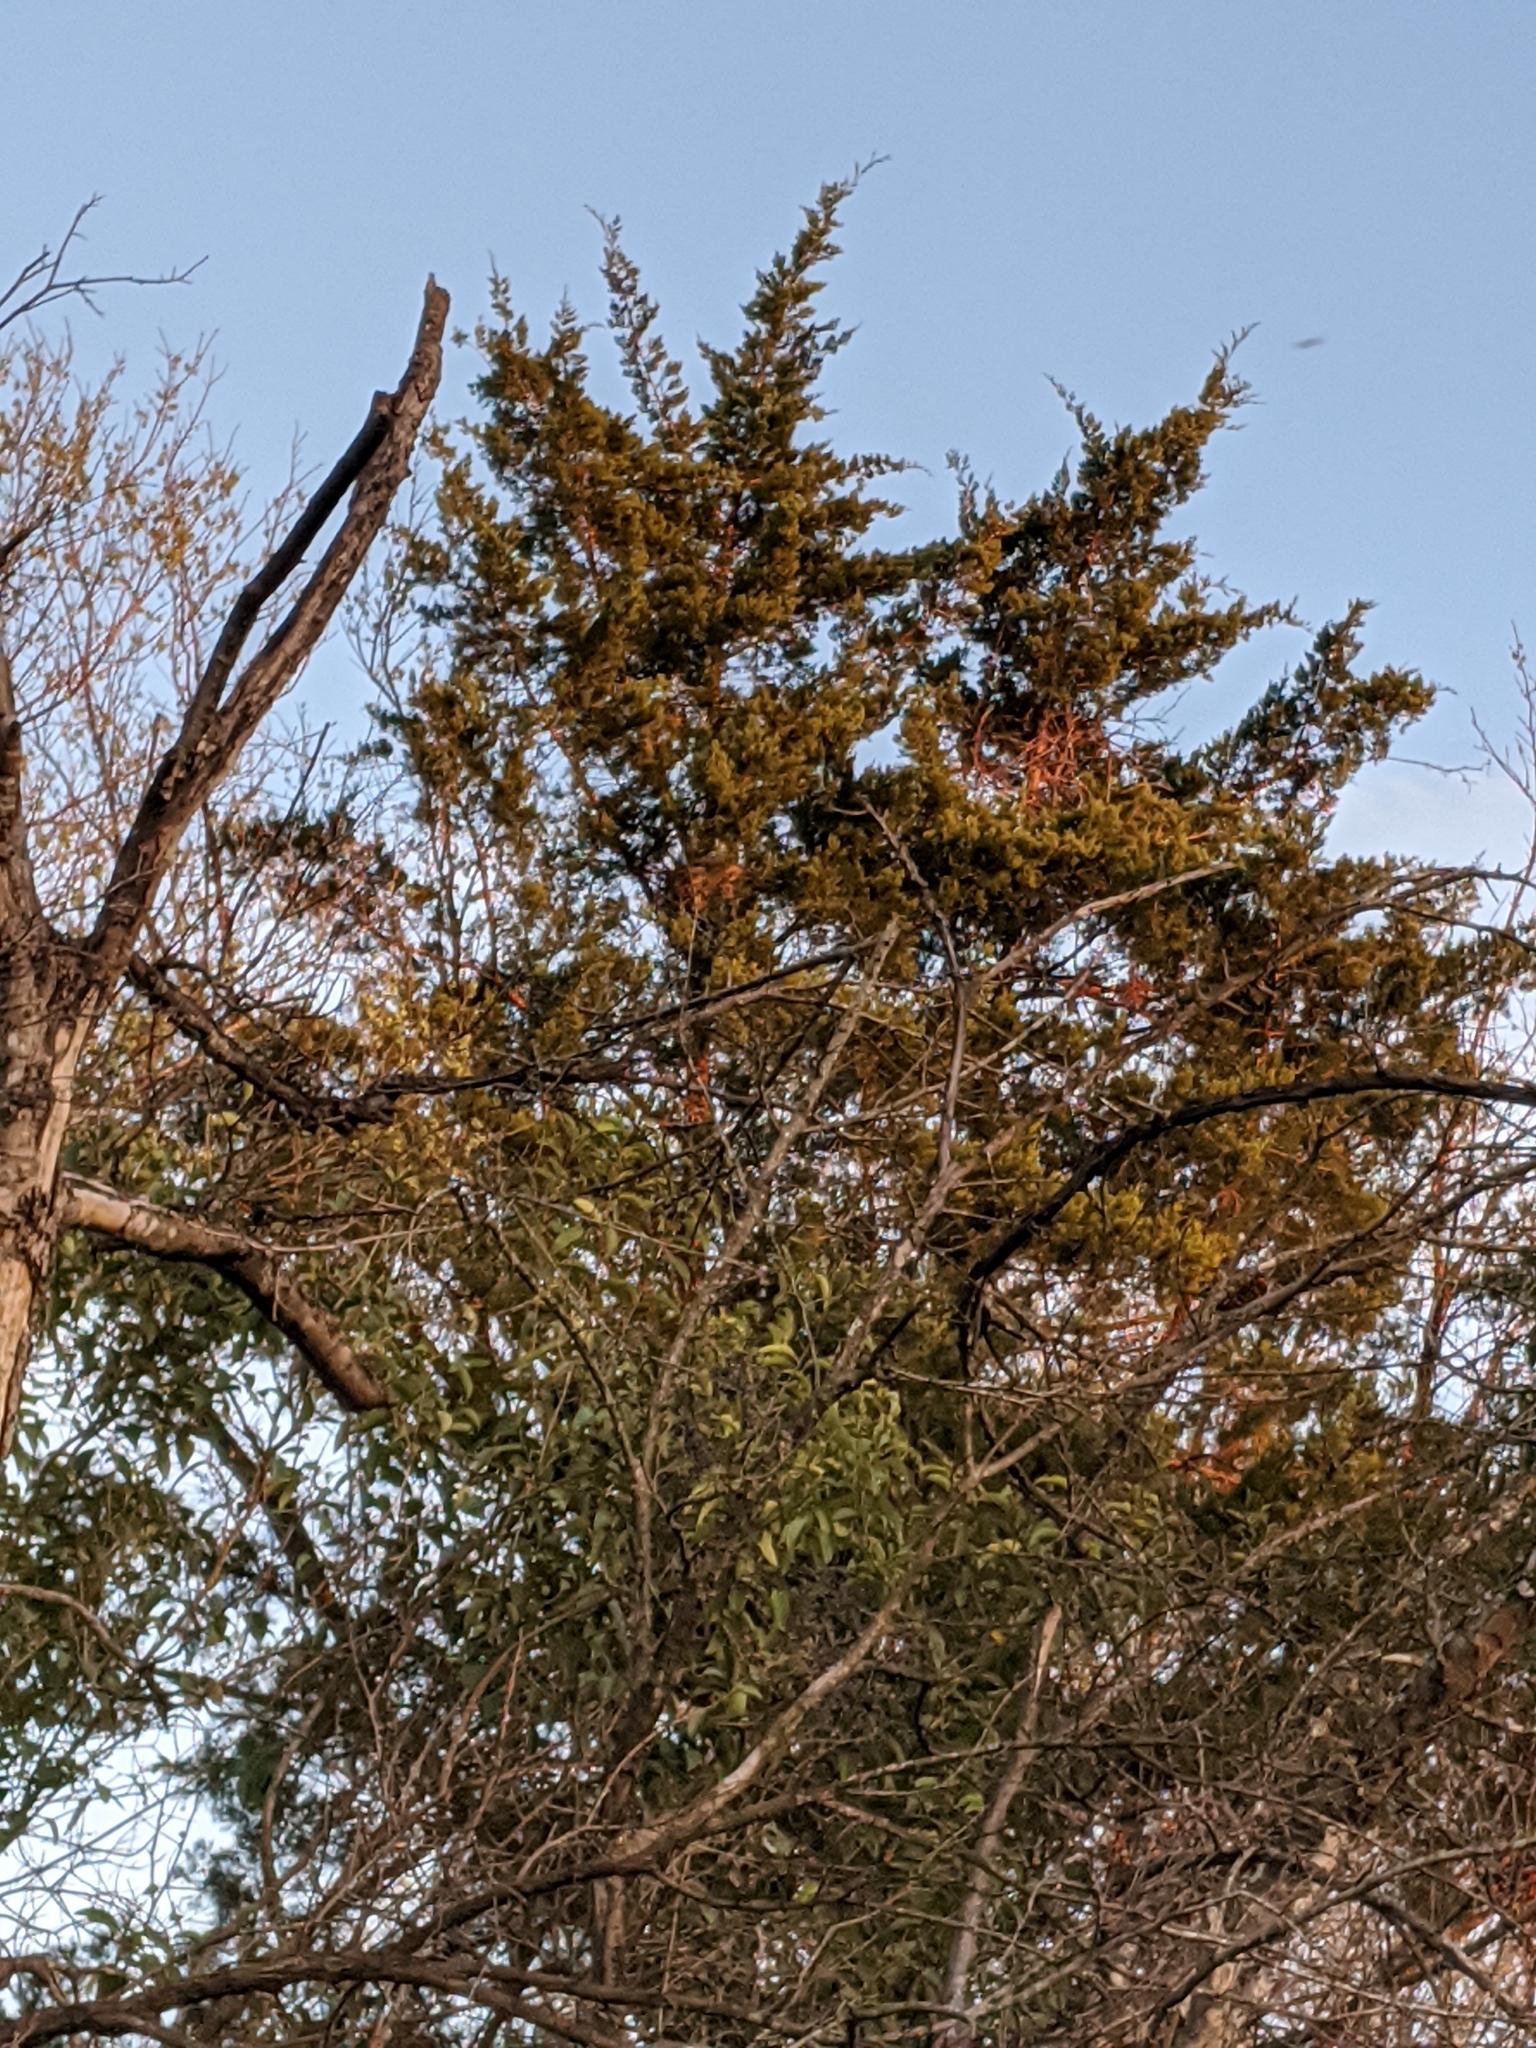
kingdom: Plantae
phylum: Tracheophyta
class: Pinopsida
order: Pinales
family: Cupressaceae
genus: Juniperus
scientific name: Juniperus virginiana
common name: Red juniper
